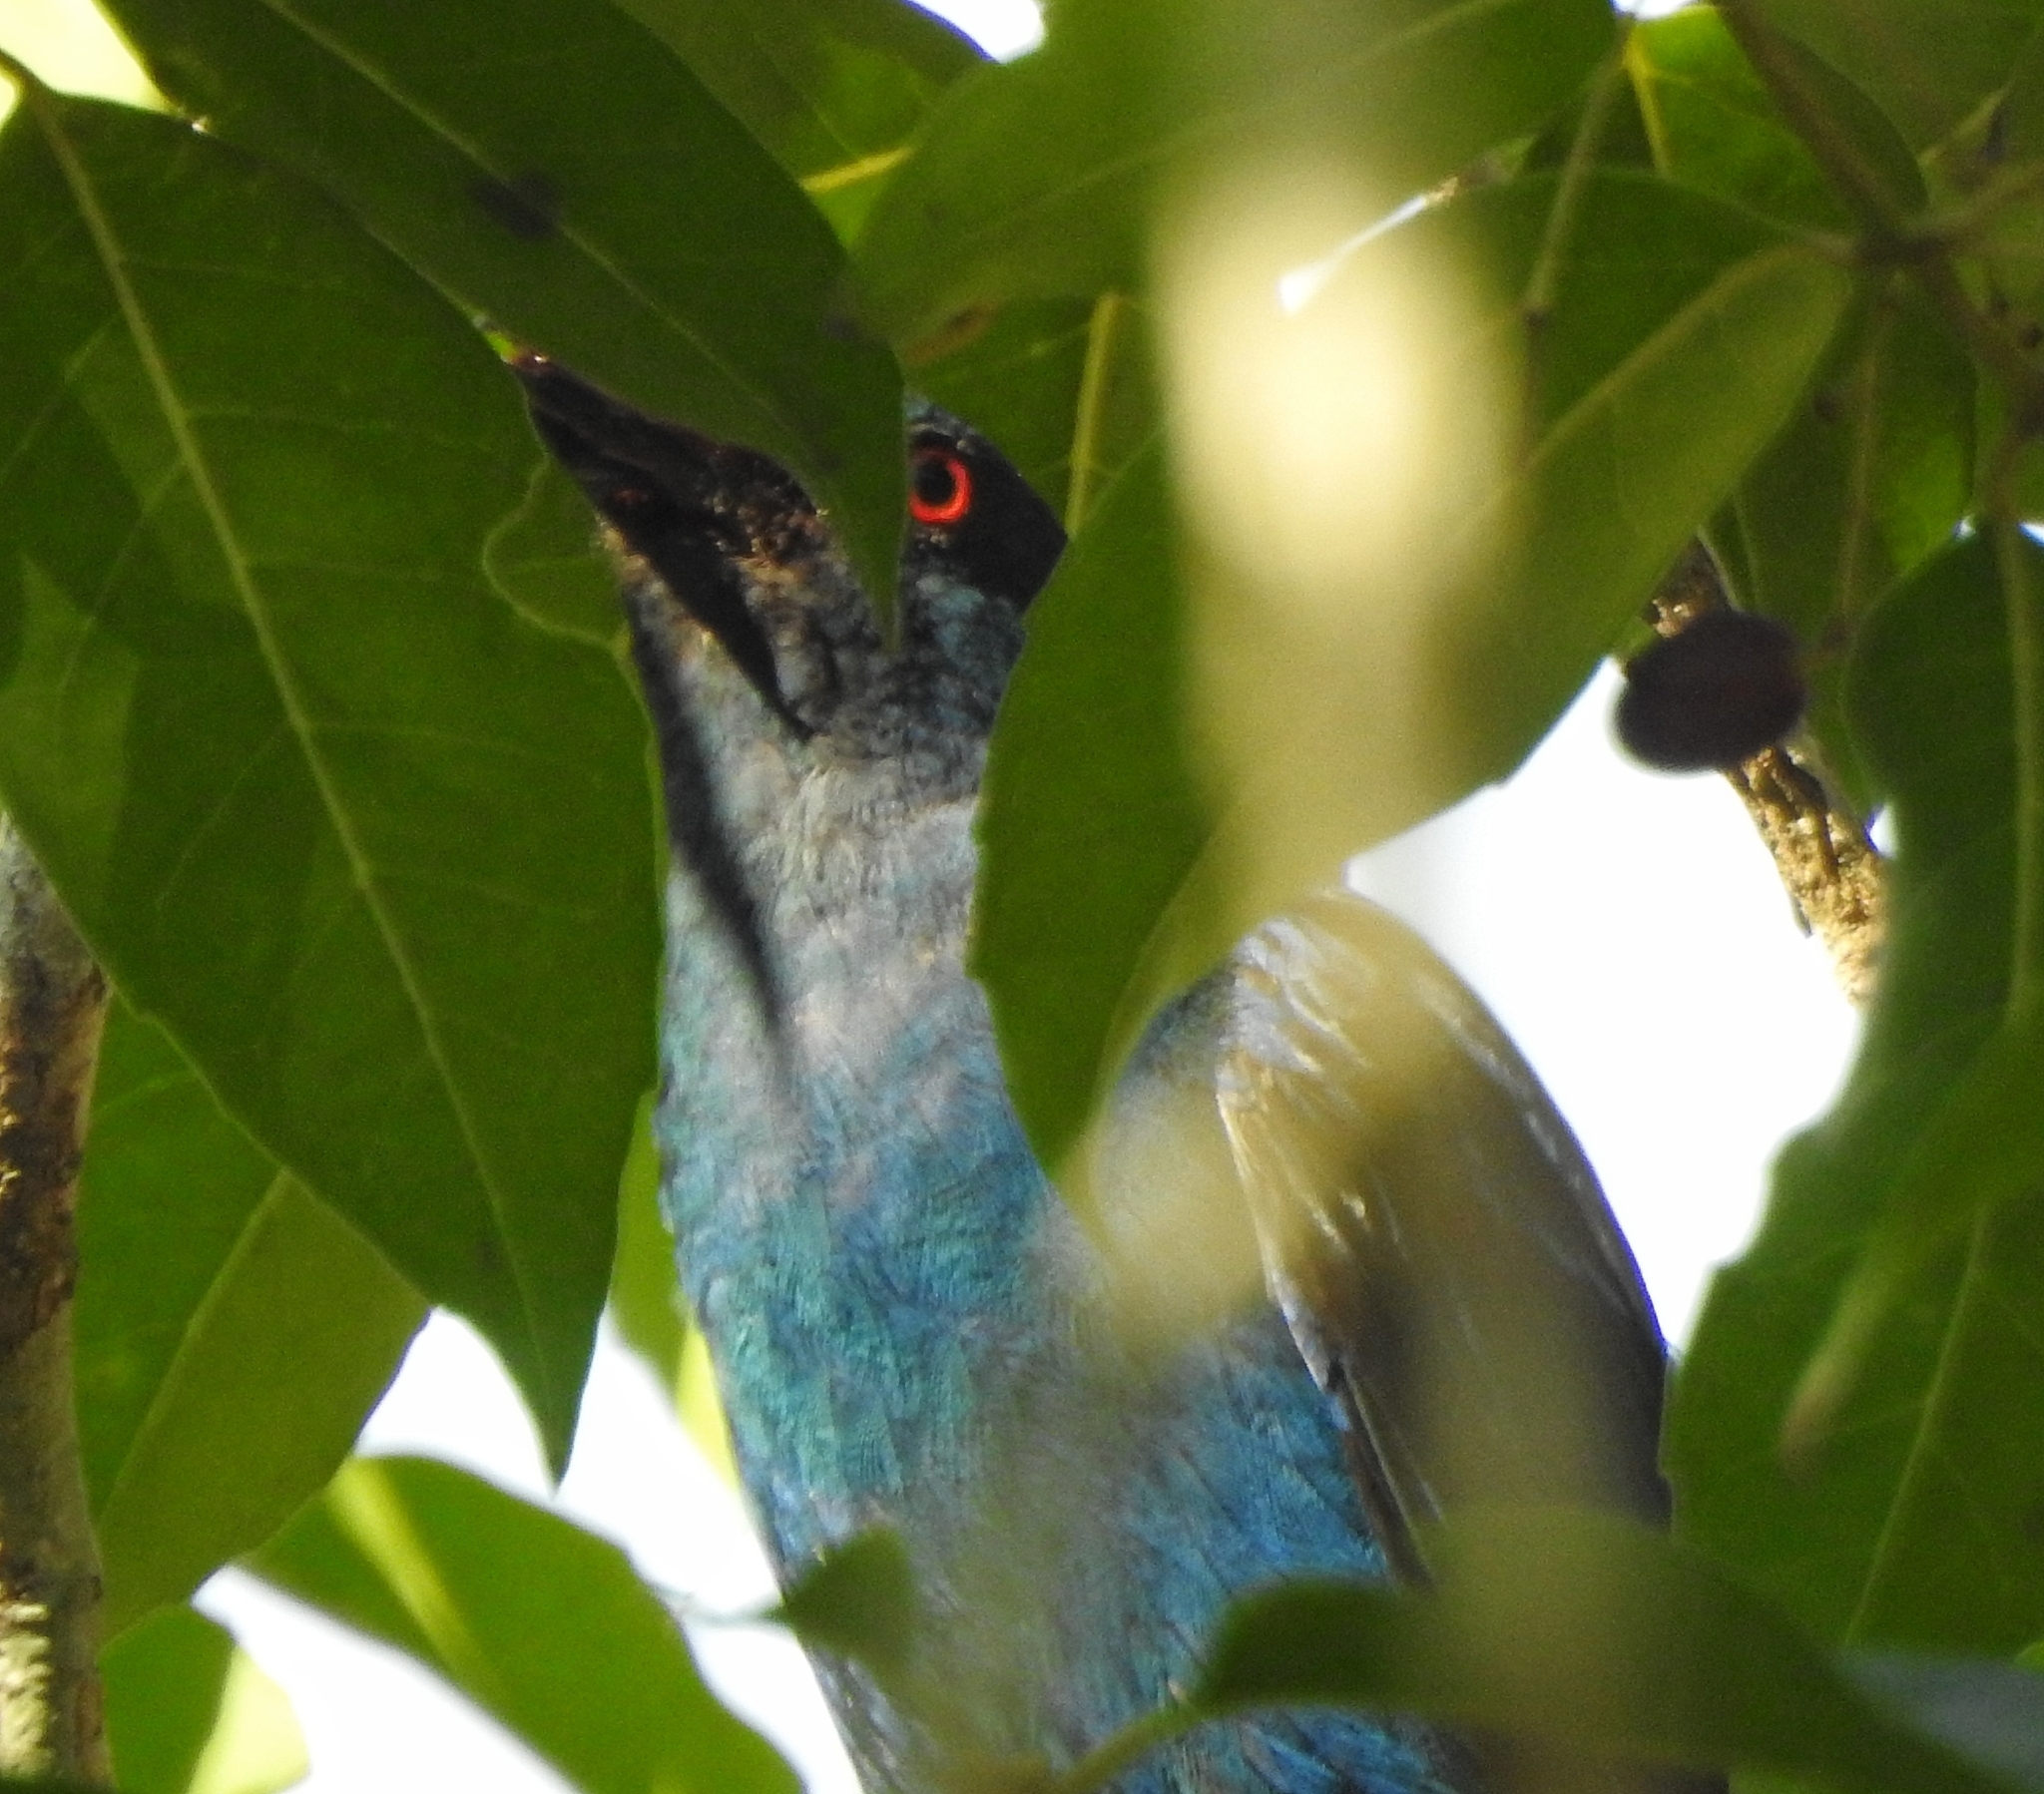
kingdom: Animalia
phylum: Chordata
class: Aves
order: Passeriformes
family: Irenidae
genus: Irena
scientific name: Irena puella
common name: Asian fairy-bluebird
